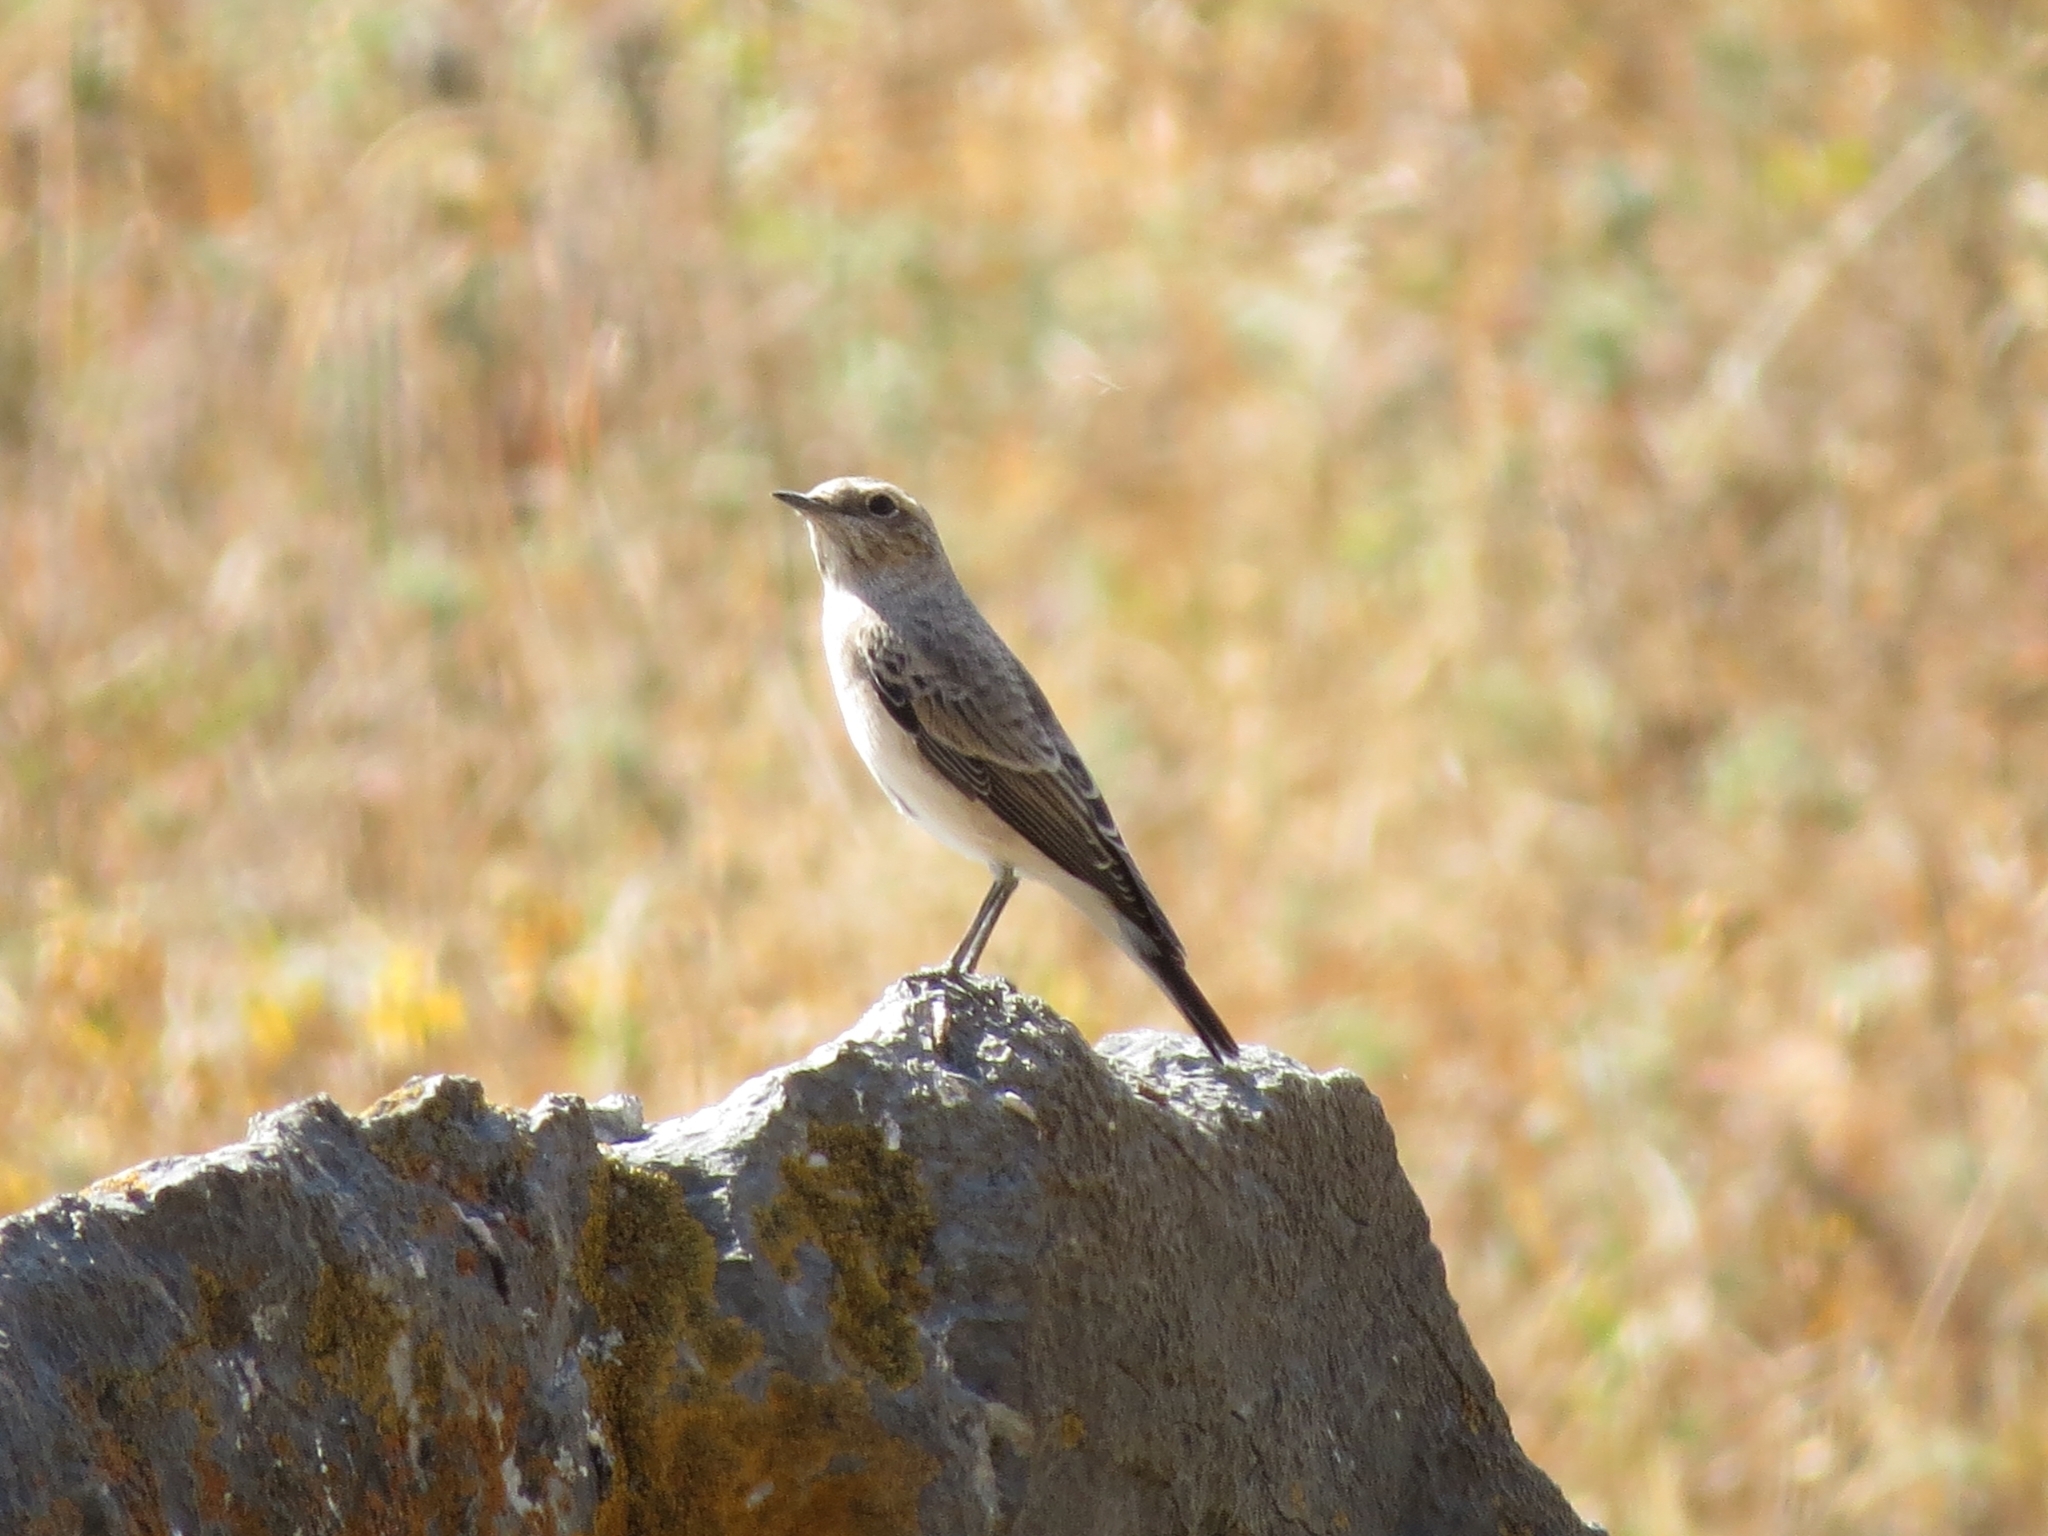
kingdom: Animalia
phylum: Chordata
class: Aves
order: Passeriformes
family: Muscicapidae
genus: Oenanthe
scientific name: Oenanthe oenanthe
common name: Northern wheatear
